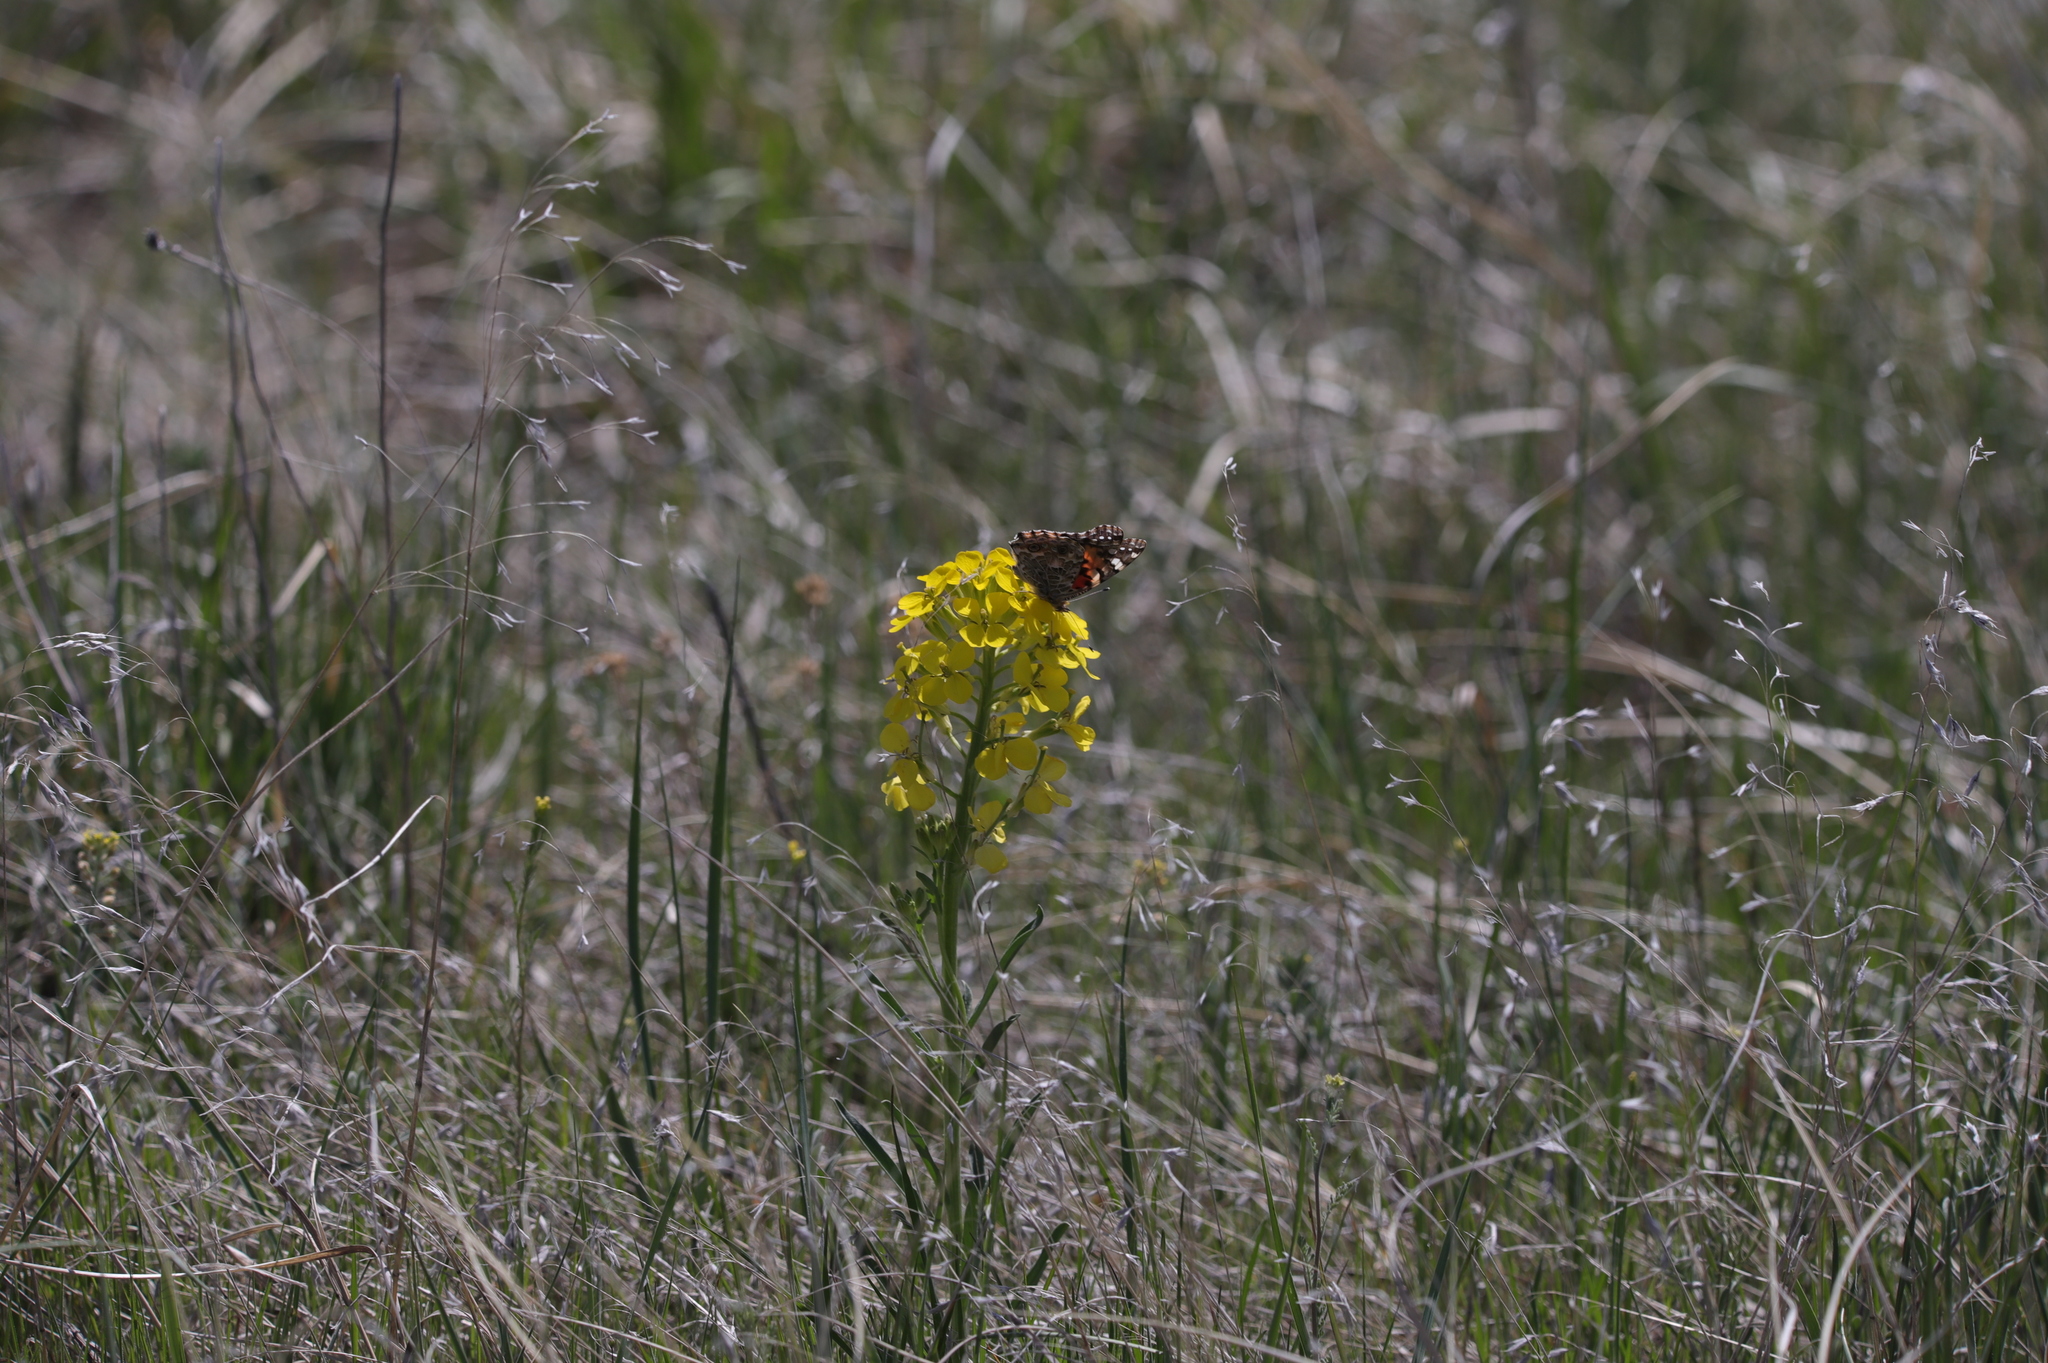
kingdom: Animalia
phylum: Arthropoda
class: Insecta
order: Lepidoptera
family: Nymphalidae
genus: Vanessa
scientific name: Vanessa cardui
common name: Painted lady
